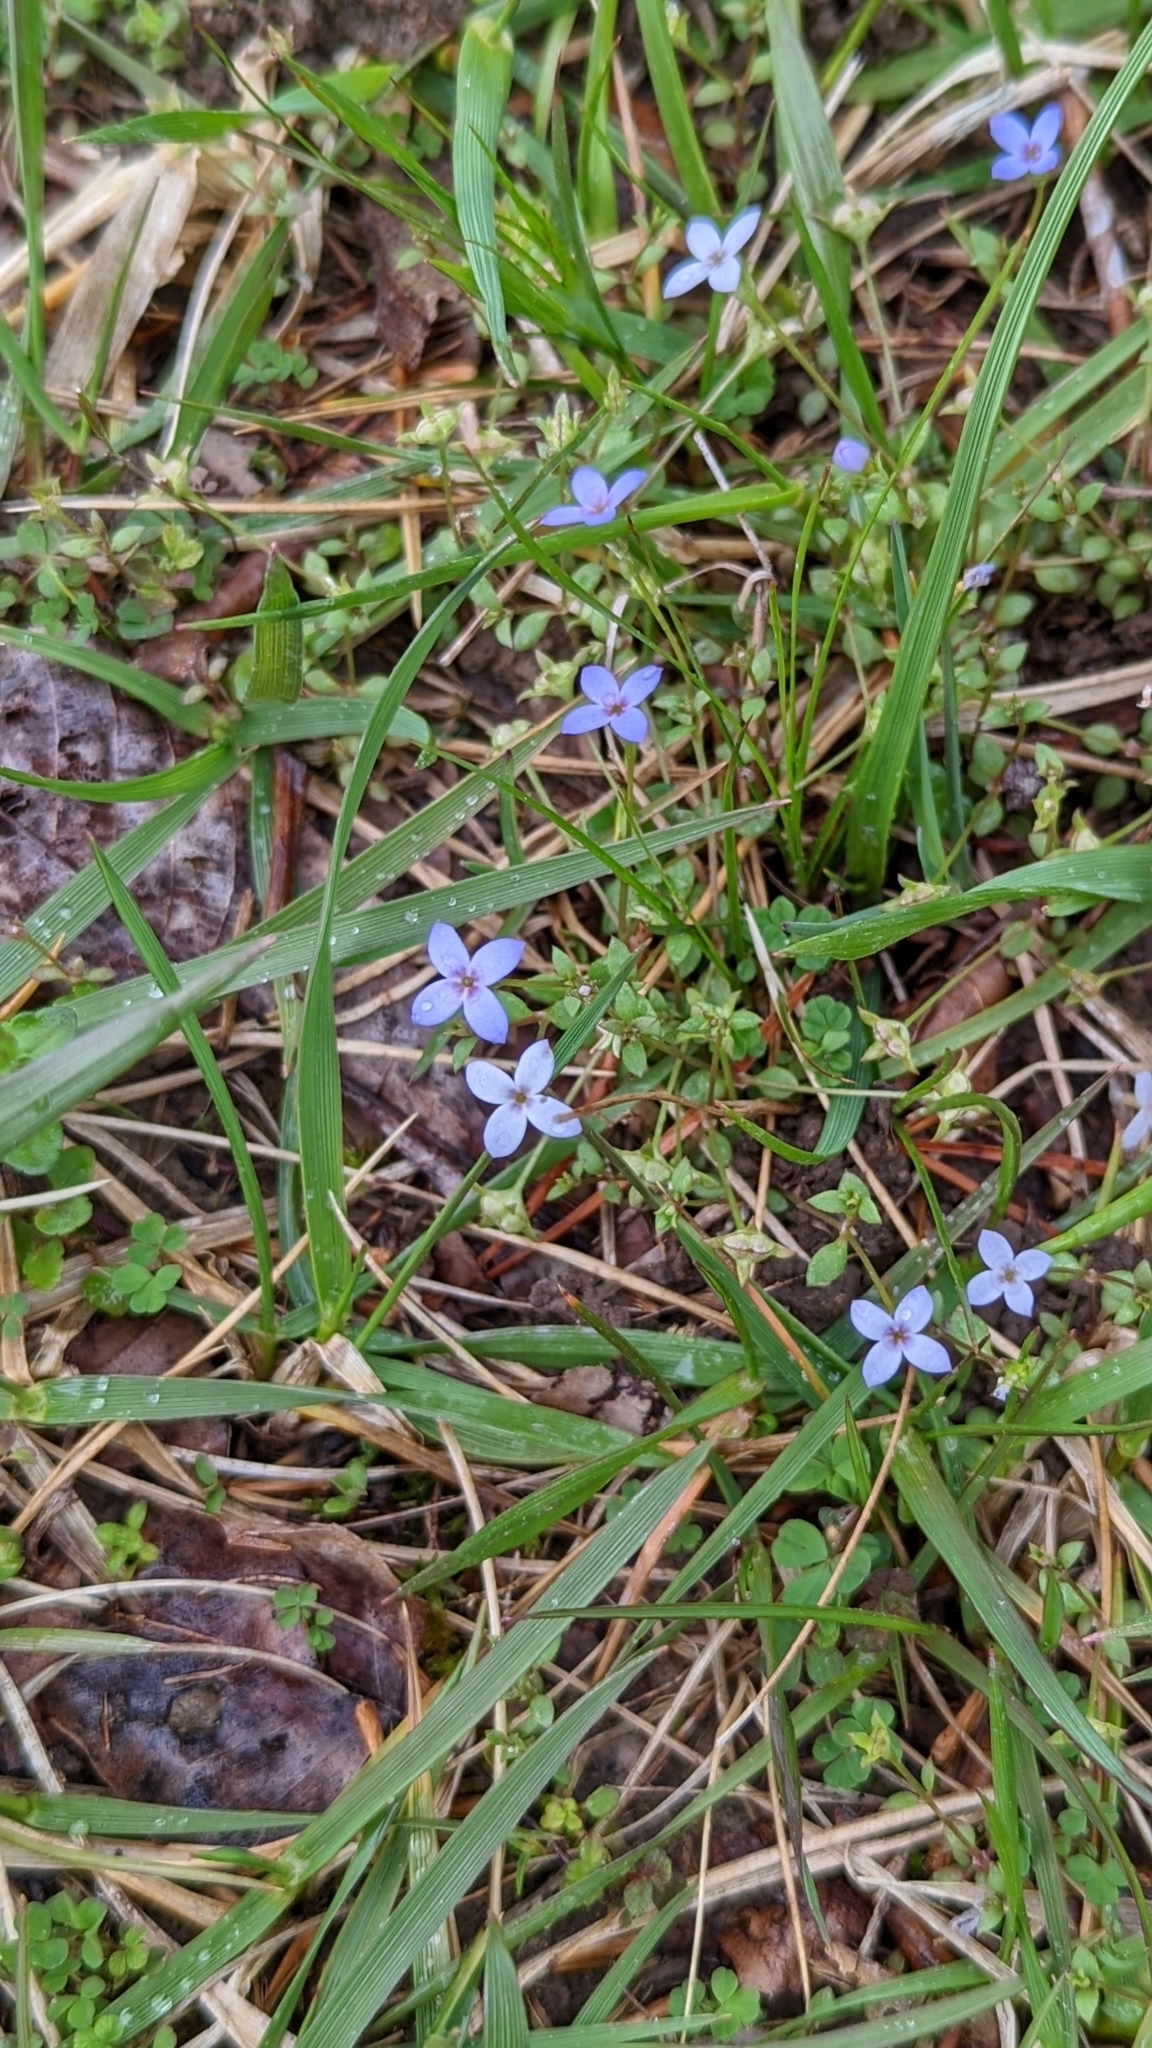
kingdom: Plantae
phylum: Tracheophyta
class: Magnoliopsida
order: Gentianales
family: Rubiaceae
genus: Houstonia
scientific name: Houstonia pusilla
